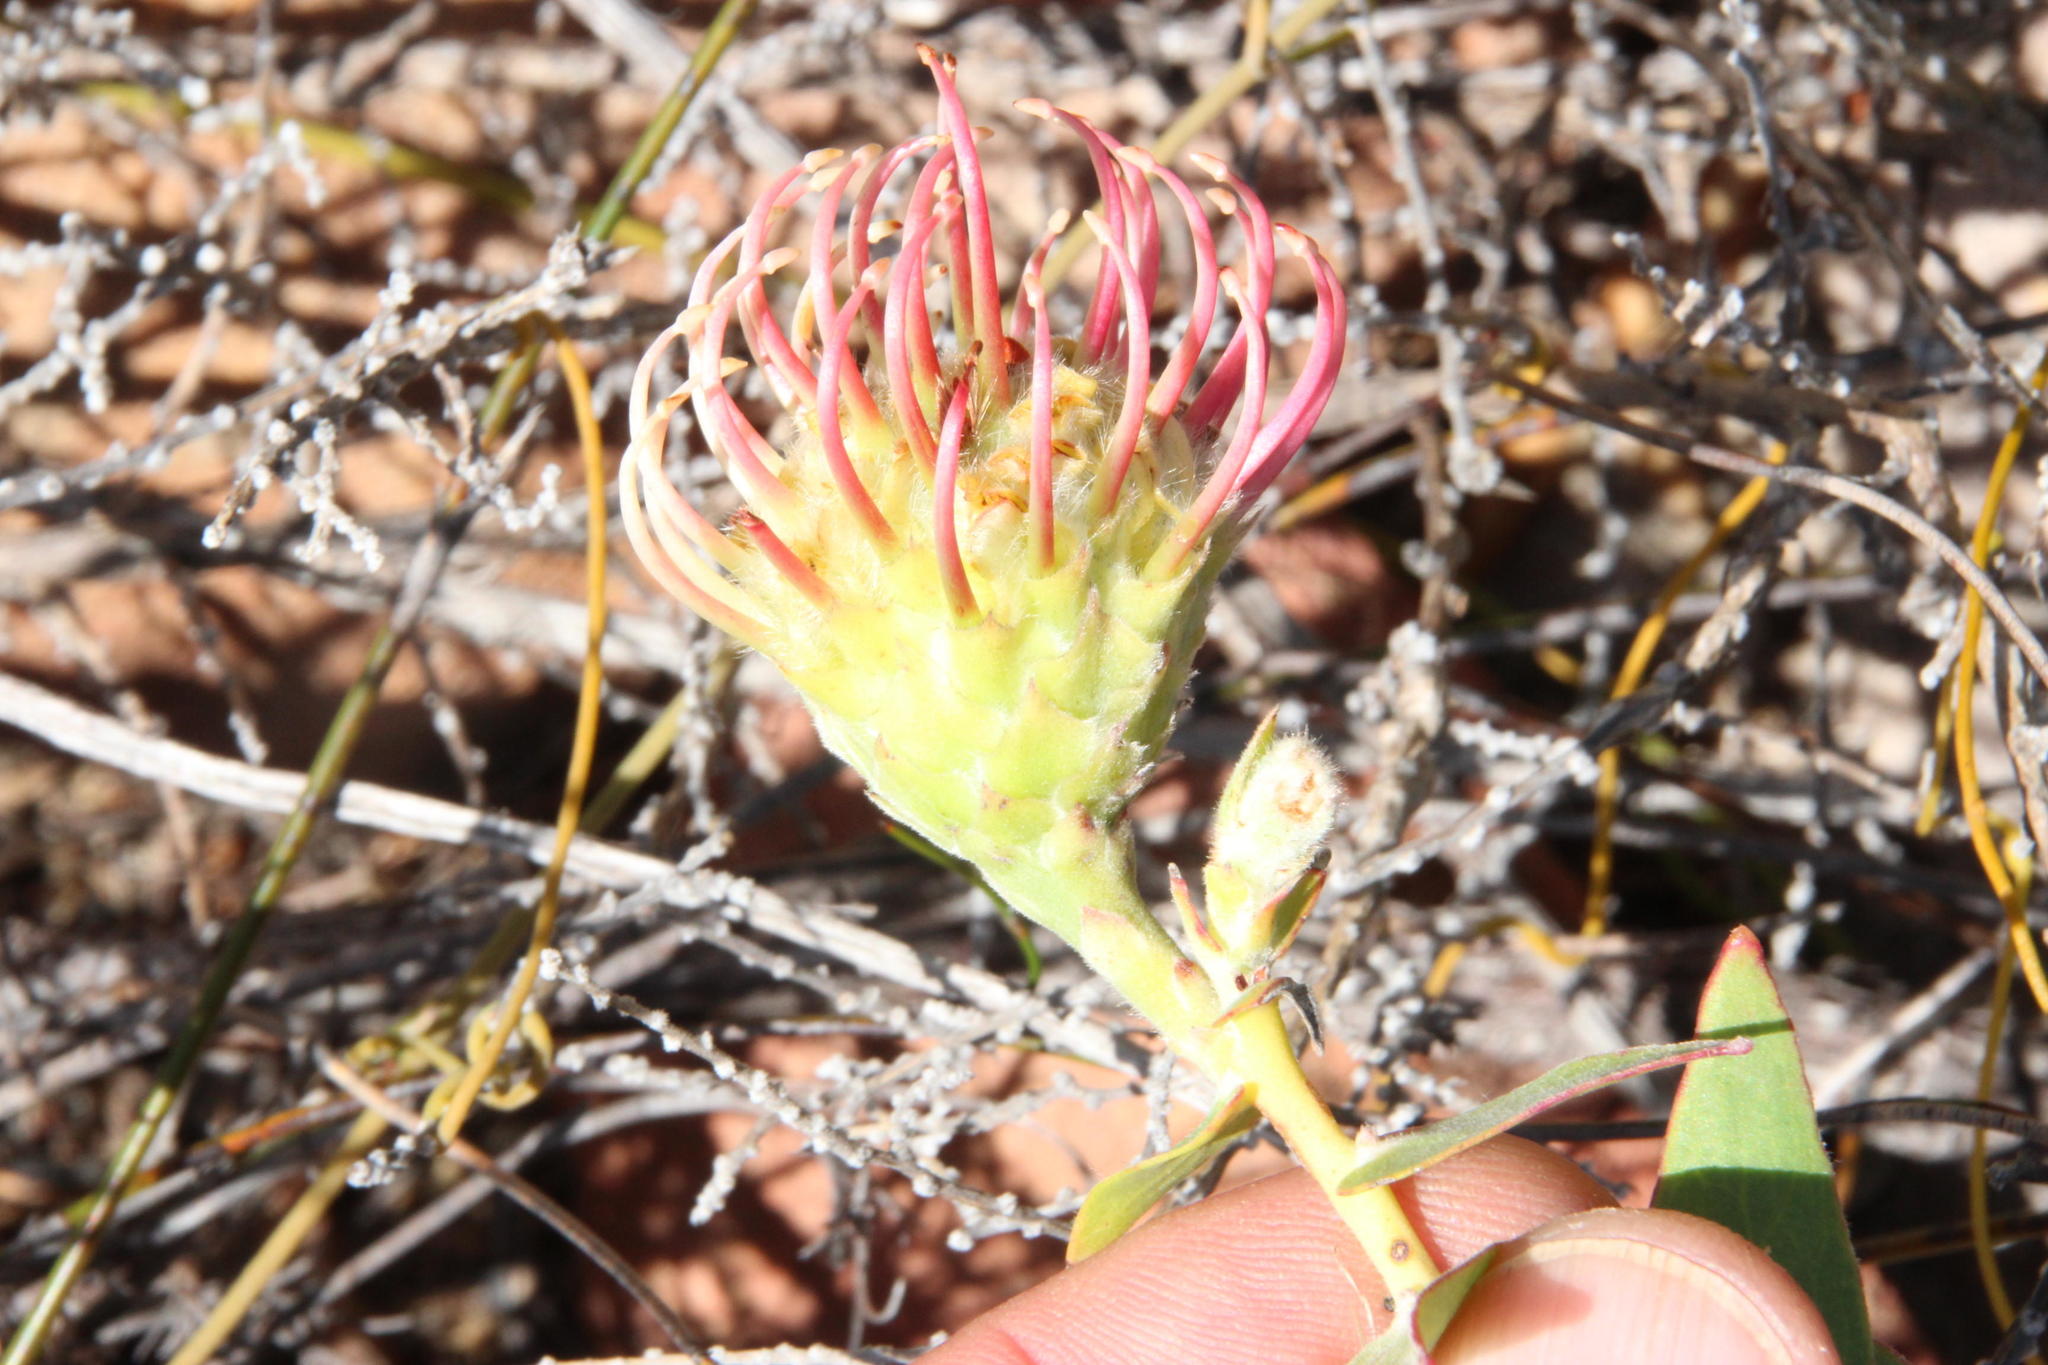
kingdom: Plantae
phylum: Tracheophyta
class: Magnoliopsida
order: Proteales
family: Proteaceae
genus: Leucospermum
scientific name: Leucospermum cordatum
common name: Heart-leaf pincushion
